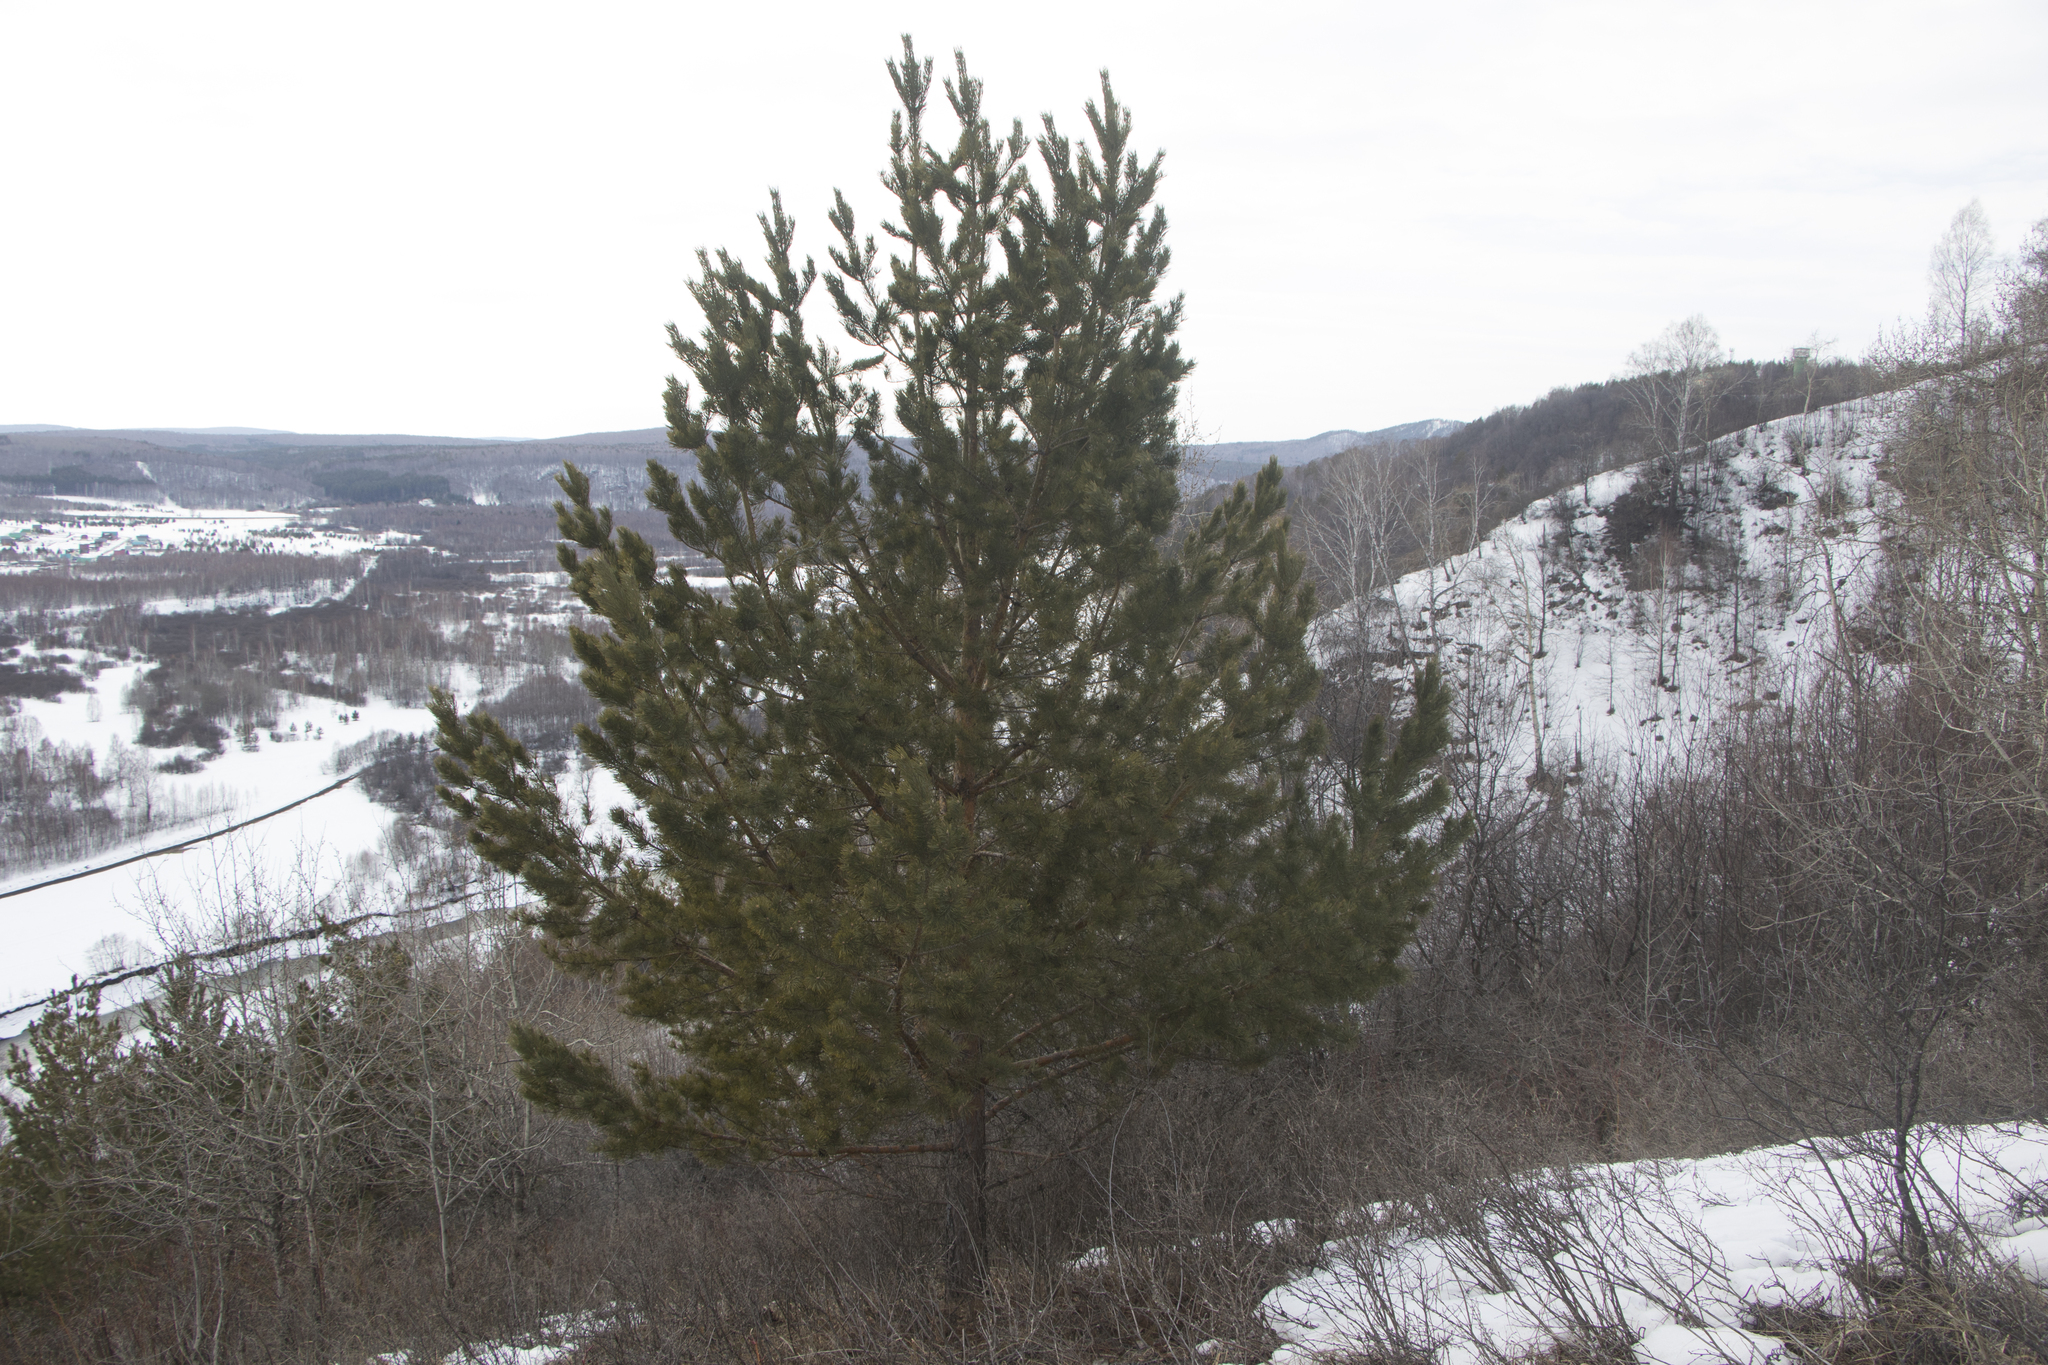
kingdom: Plantae
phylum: Tracheophyta
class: Pinopsida
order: Pinales
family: Pinaceae
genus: Pinus
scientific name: Pinus sylvestris
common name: Scots pine
